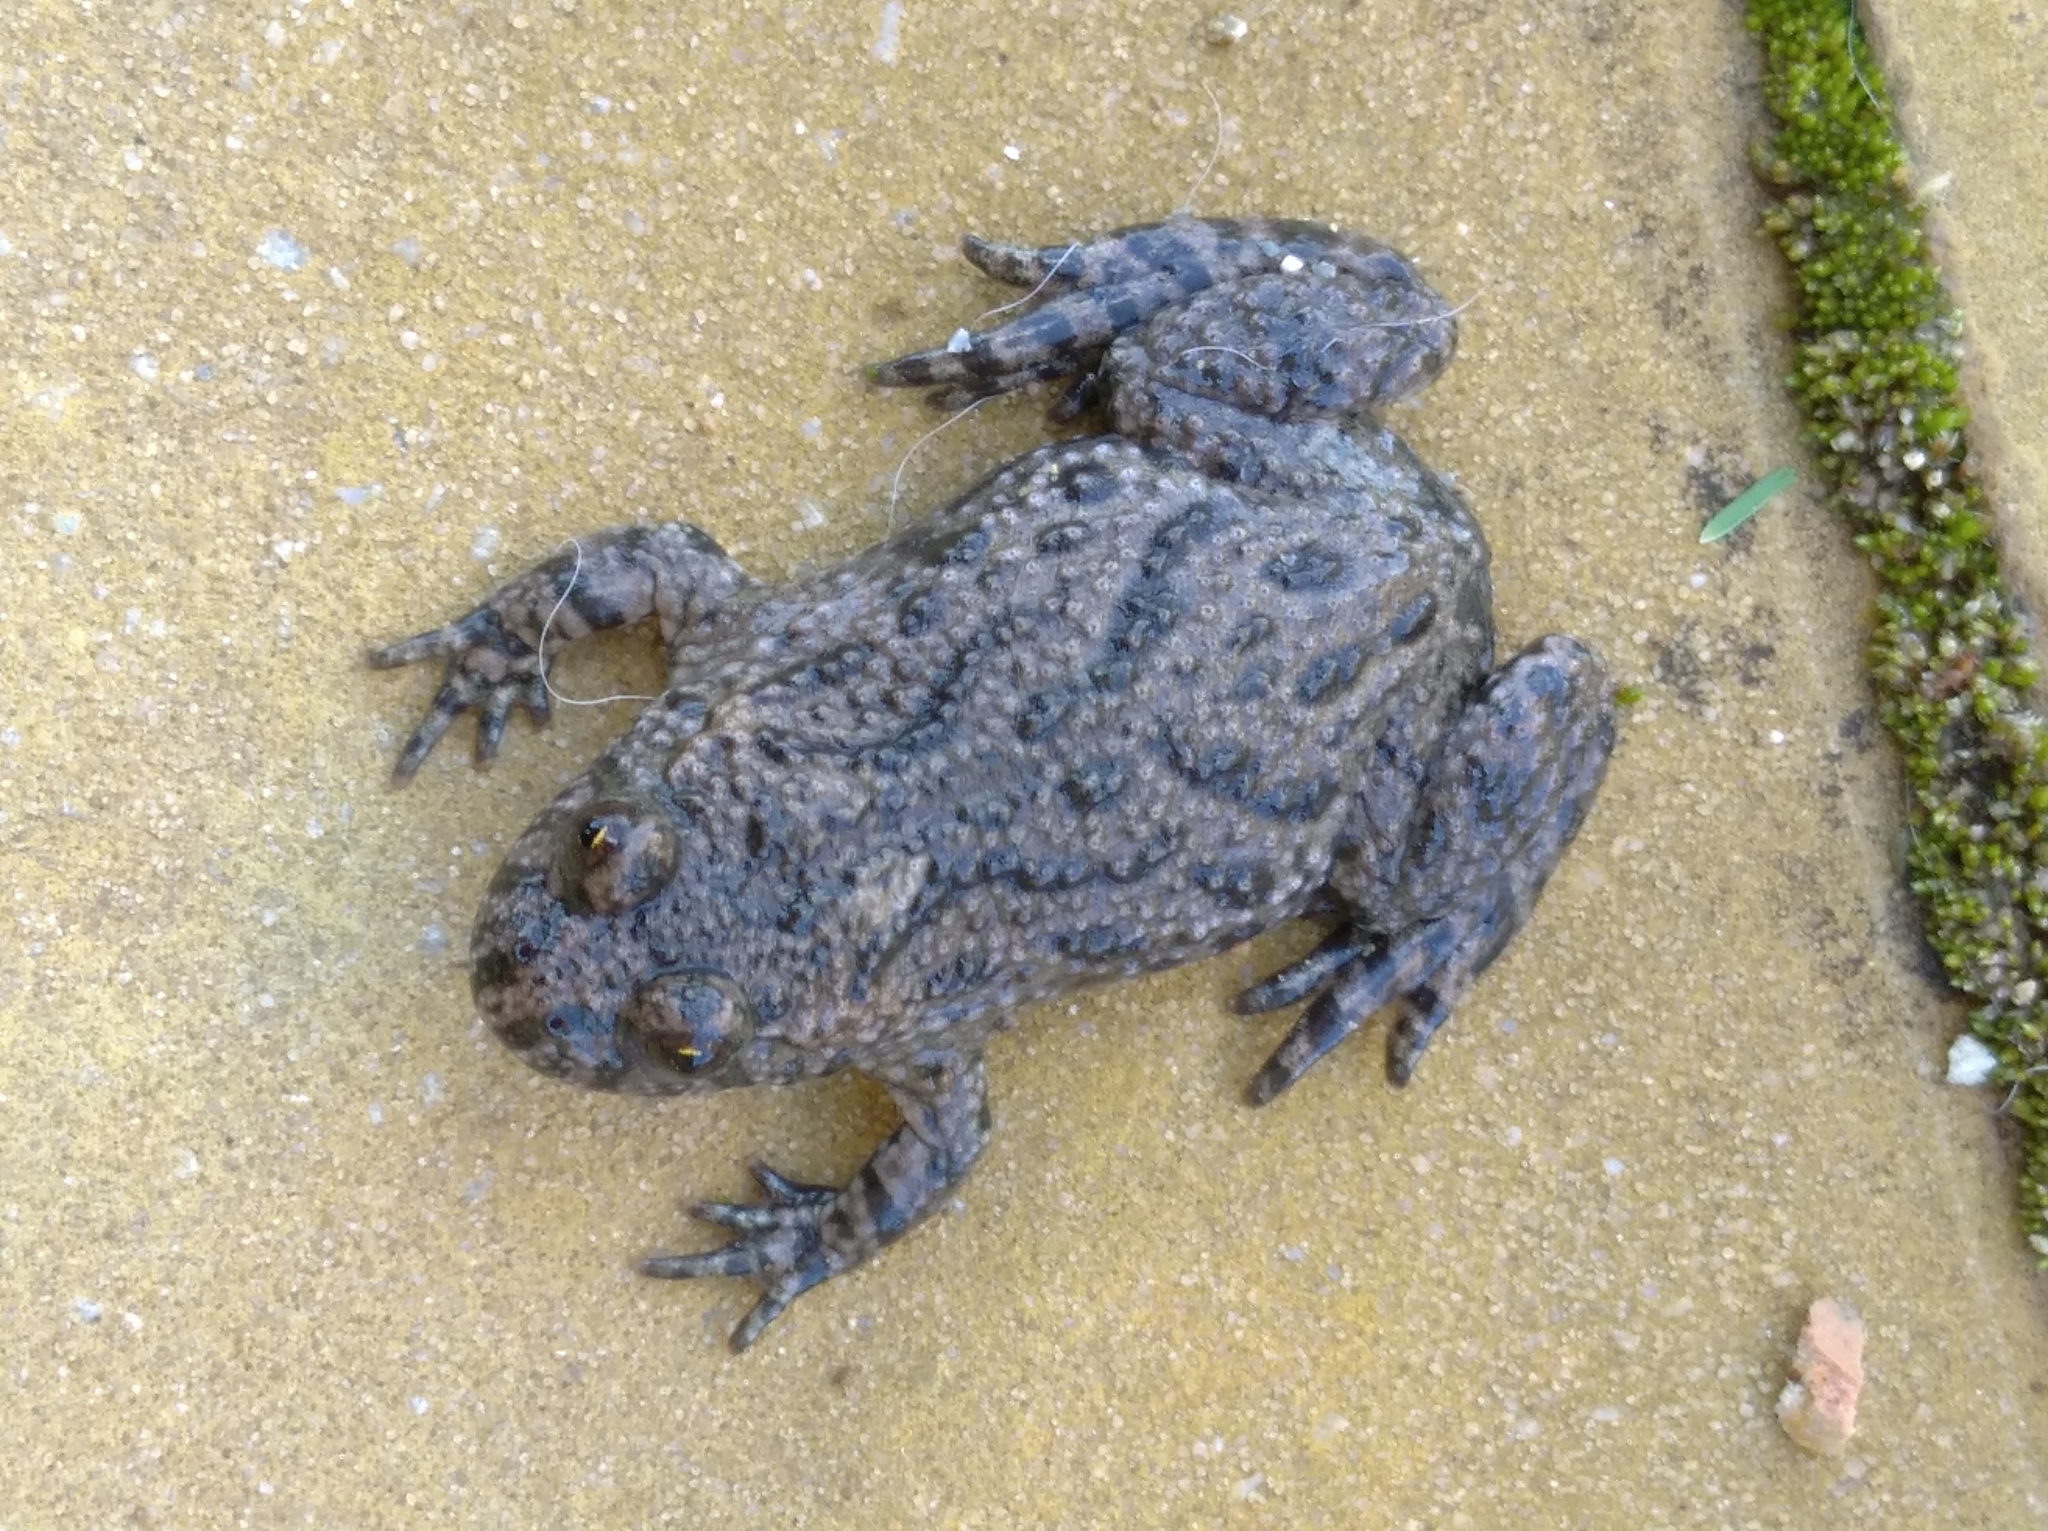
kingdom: Animalia
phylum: Chordata
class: Amphibia
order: Anura
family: Bombinatoridae
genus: Bombina
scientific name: Bombina bombina
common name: Fire-bellied toad
